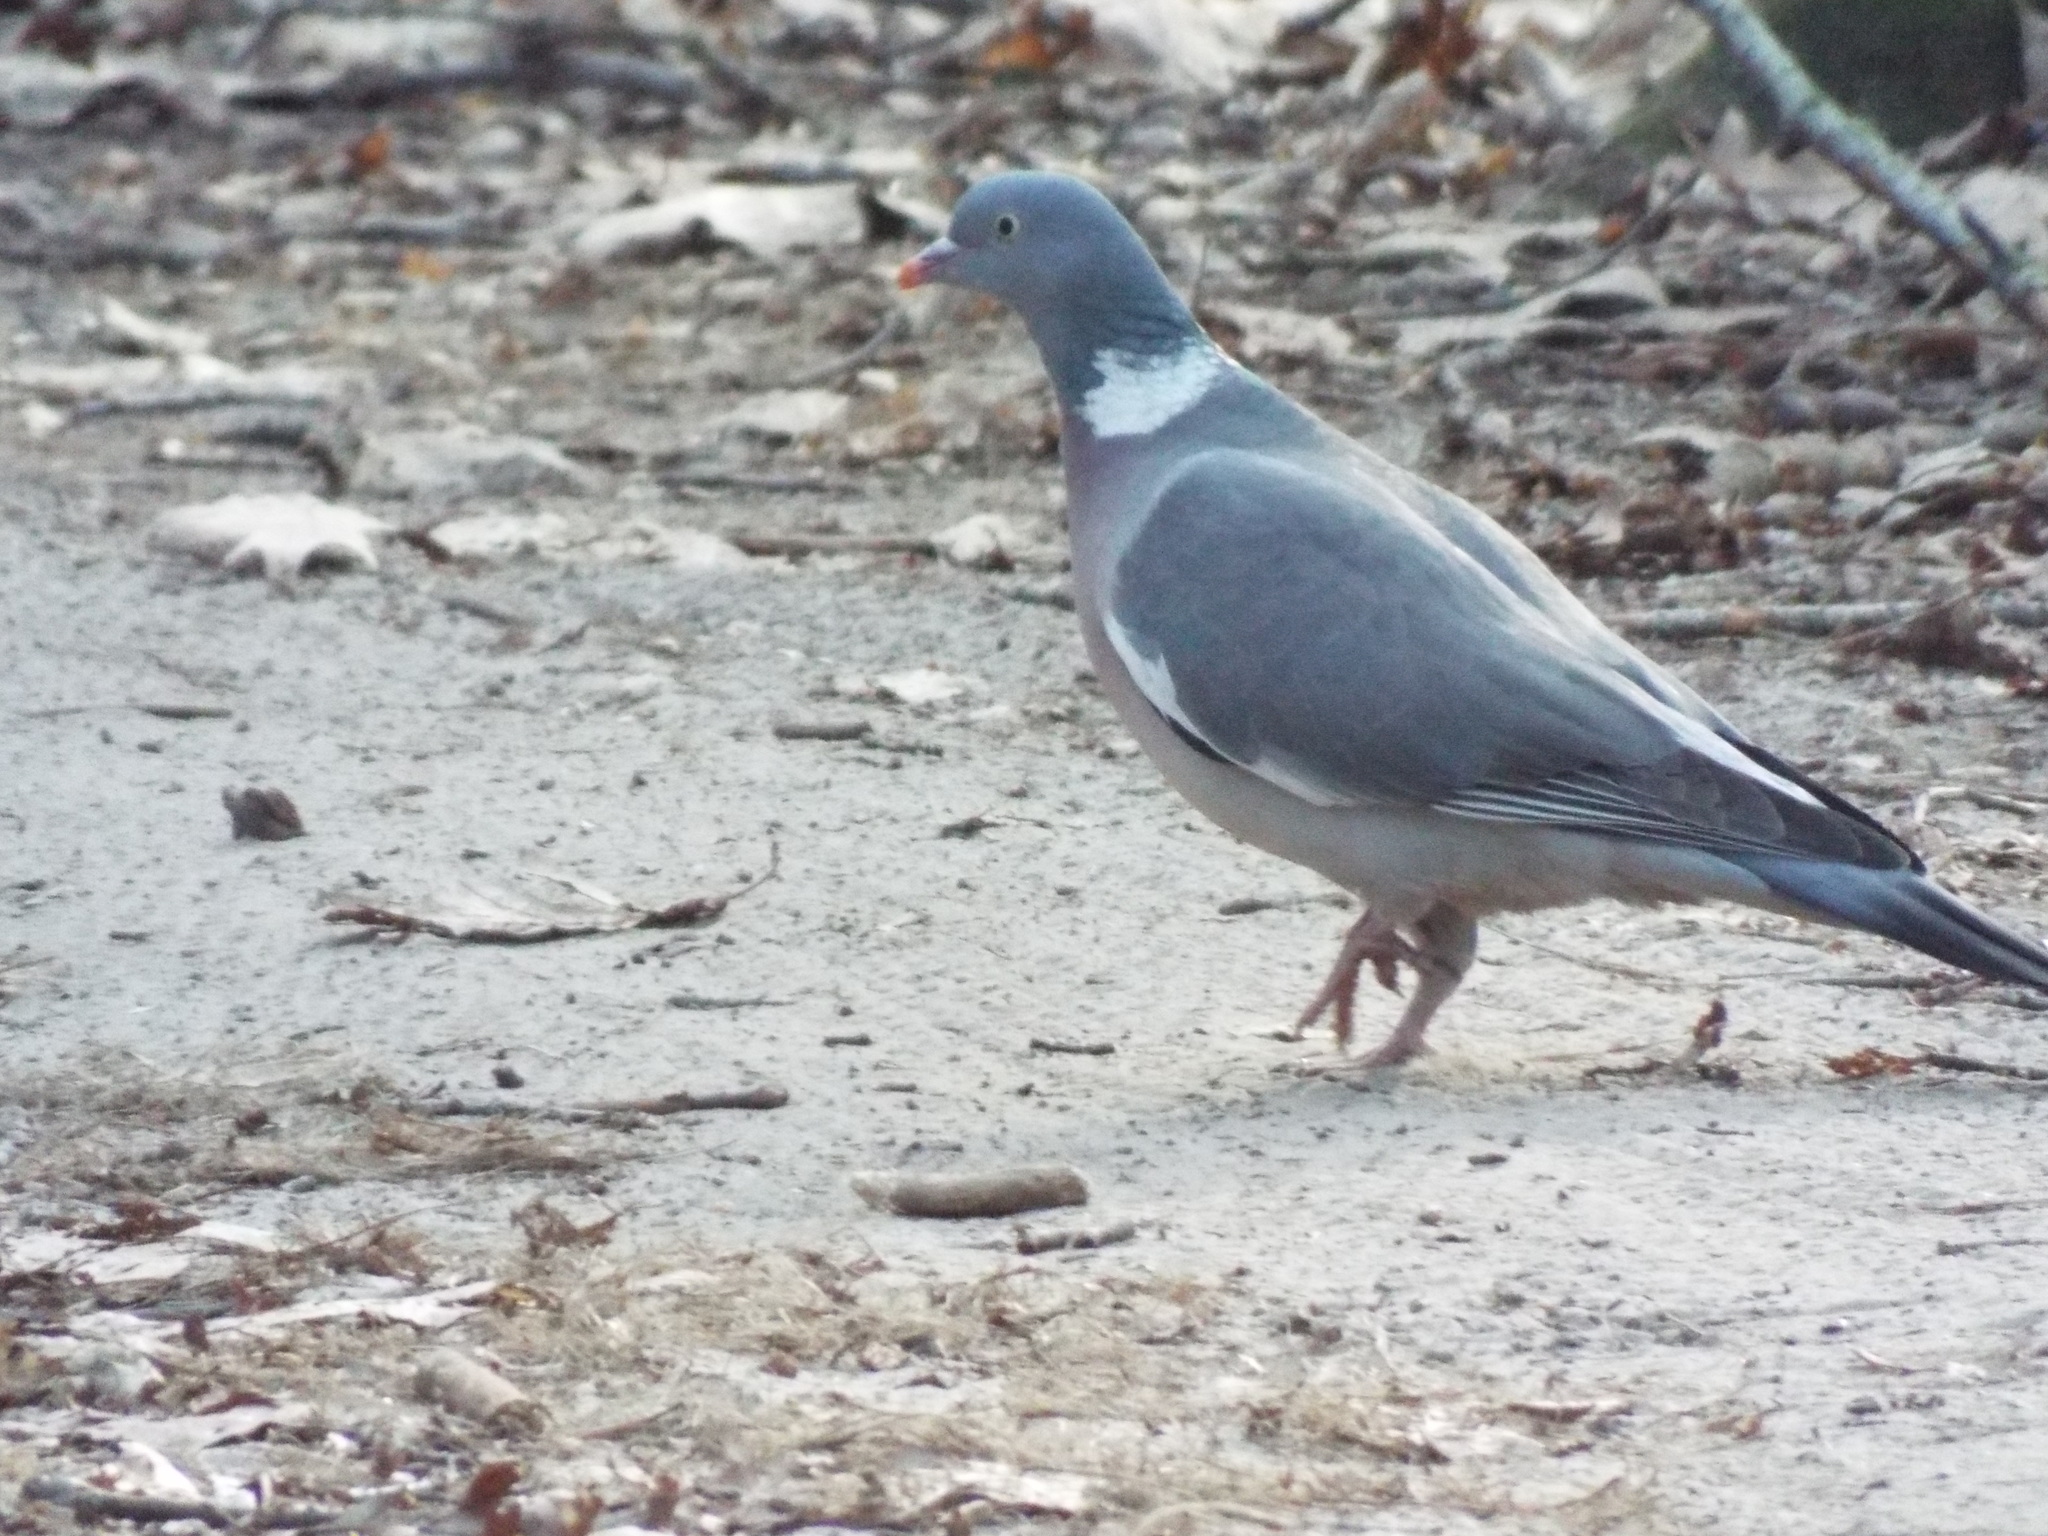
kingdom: Animalia
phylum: Chordata
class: Aves
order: Columbiformes
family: Columbidae
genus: Columba
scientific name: Columba palumbus
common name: Common wood pigeon
